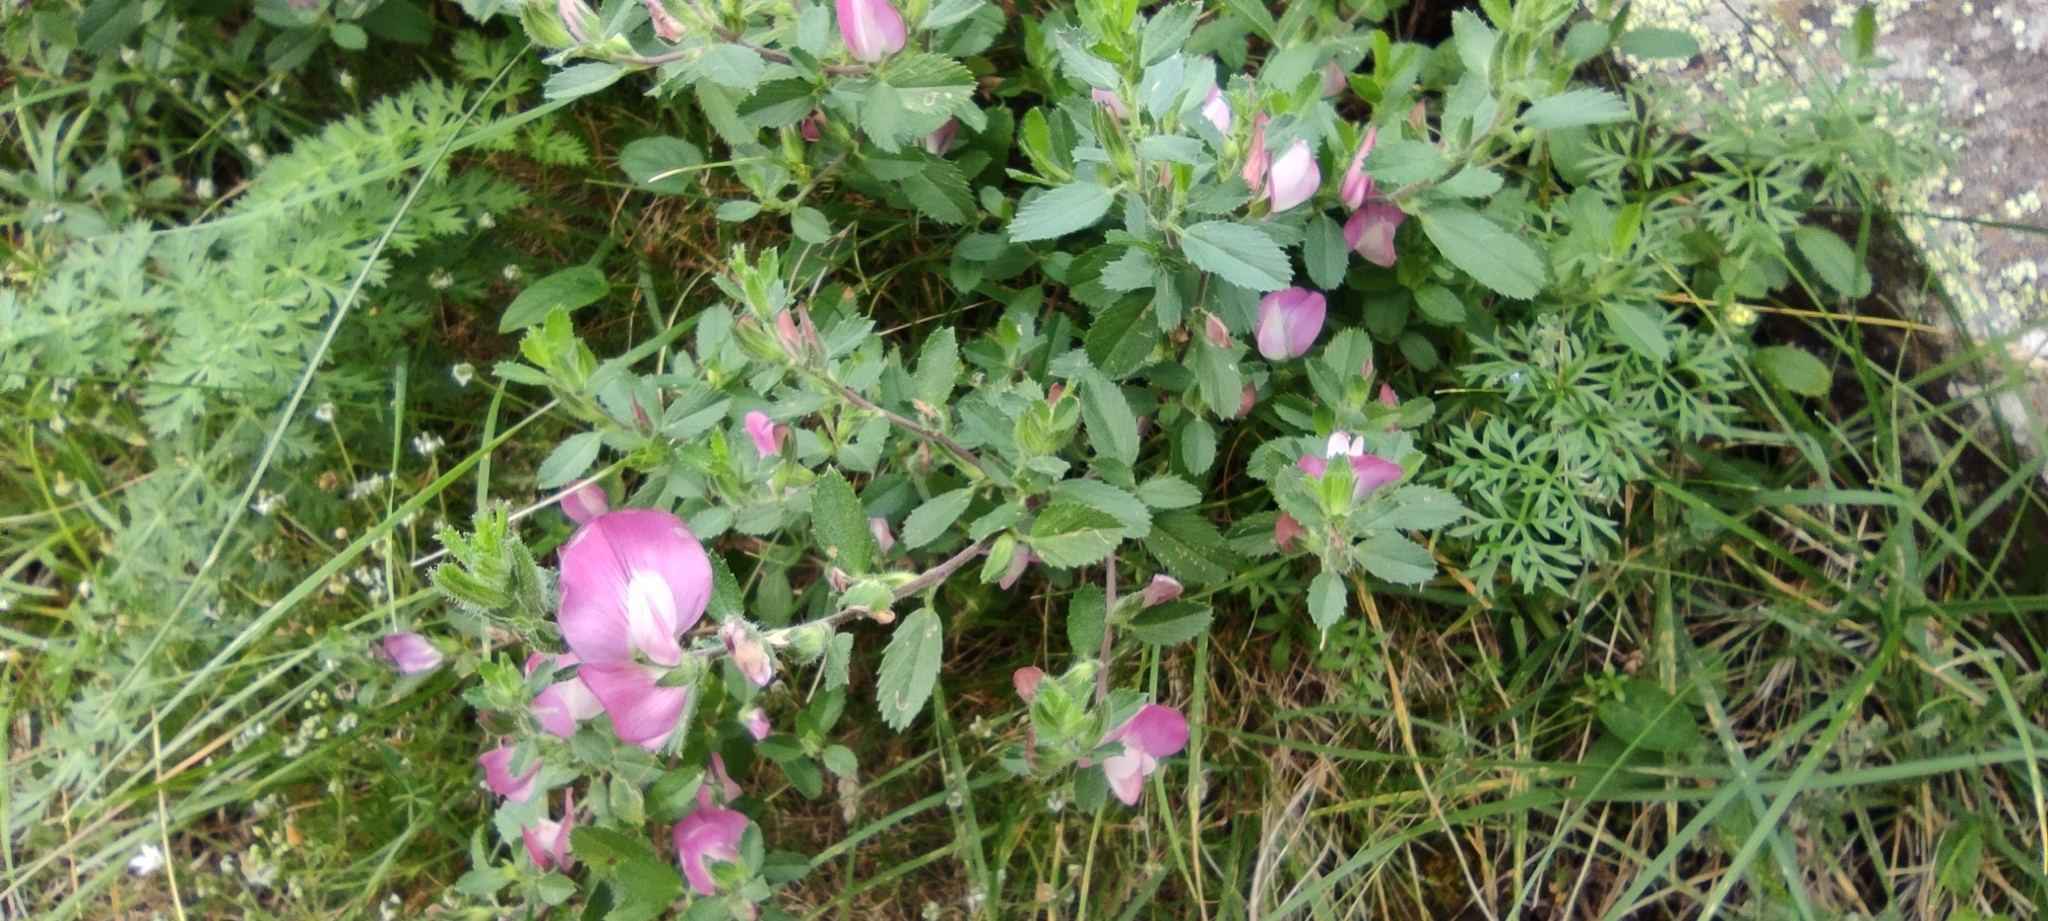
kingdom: Plantae
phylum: Tracheophyta
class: Magnoliopsida
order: Fabales
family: Fabaceae
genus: Ononis
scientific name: Ononis cristata
